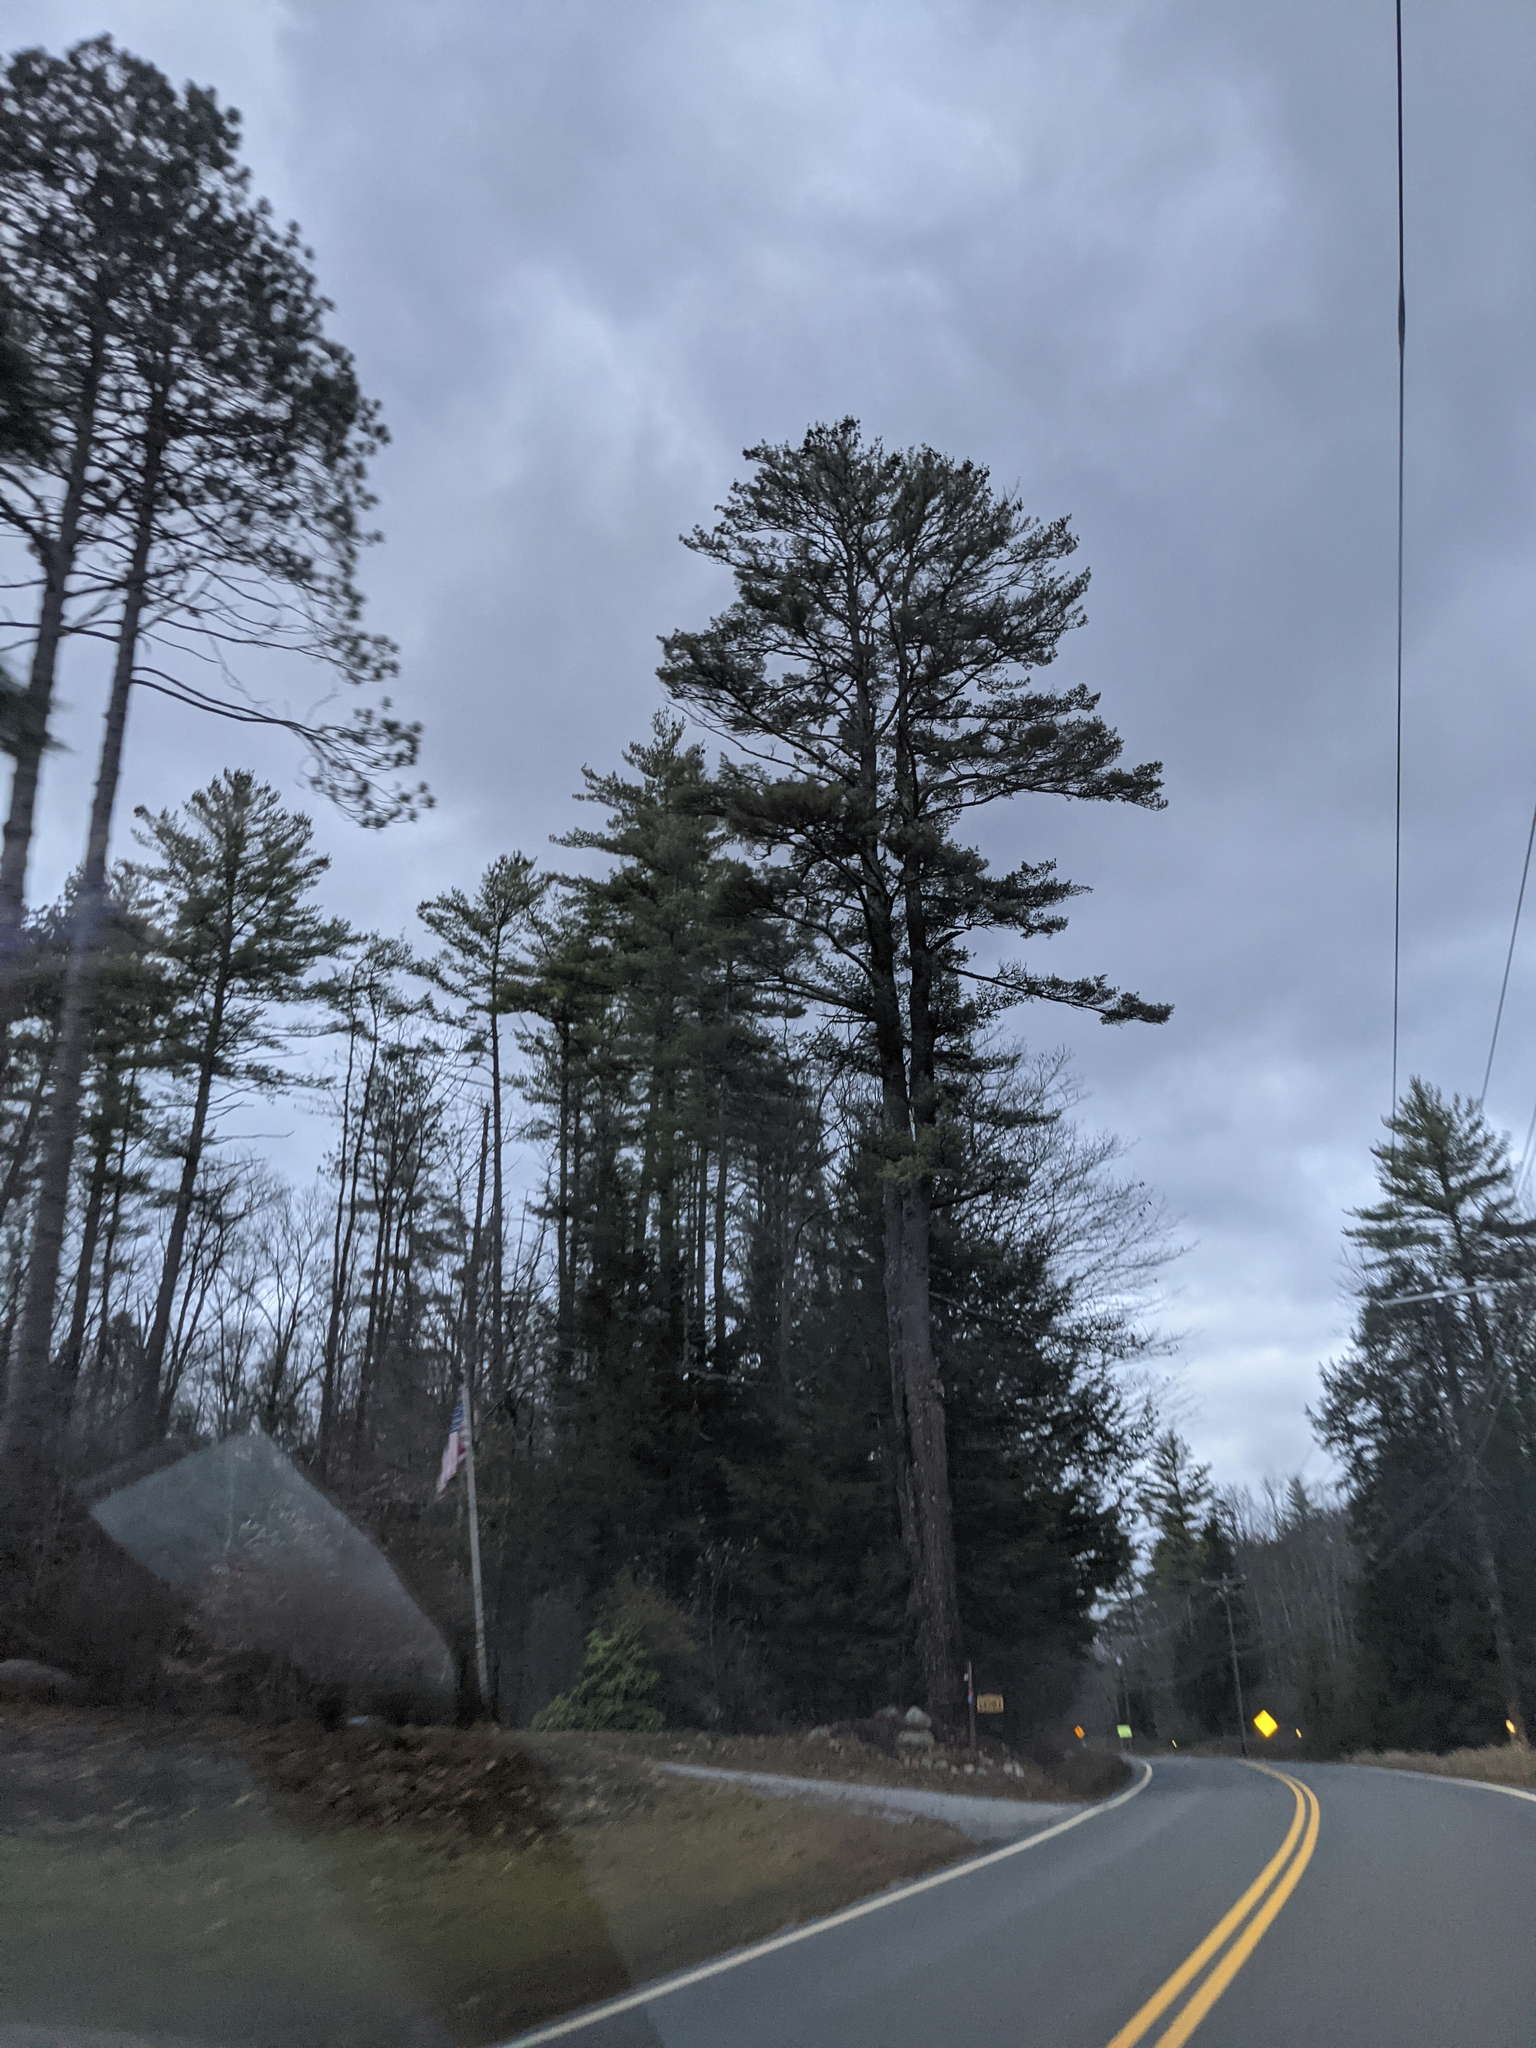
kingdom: Plantae
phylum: Tracheophyta
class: Pinopsida
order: Pinales
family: Pinaceae
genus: Pinus
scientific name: Pinus strobus
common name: Weymouth pine
